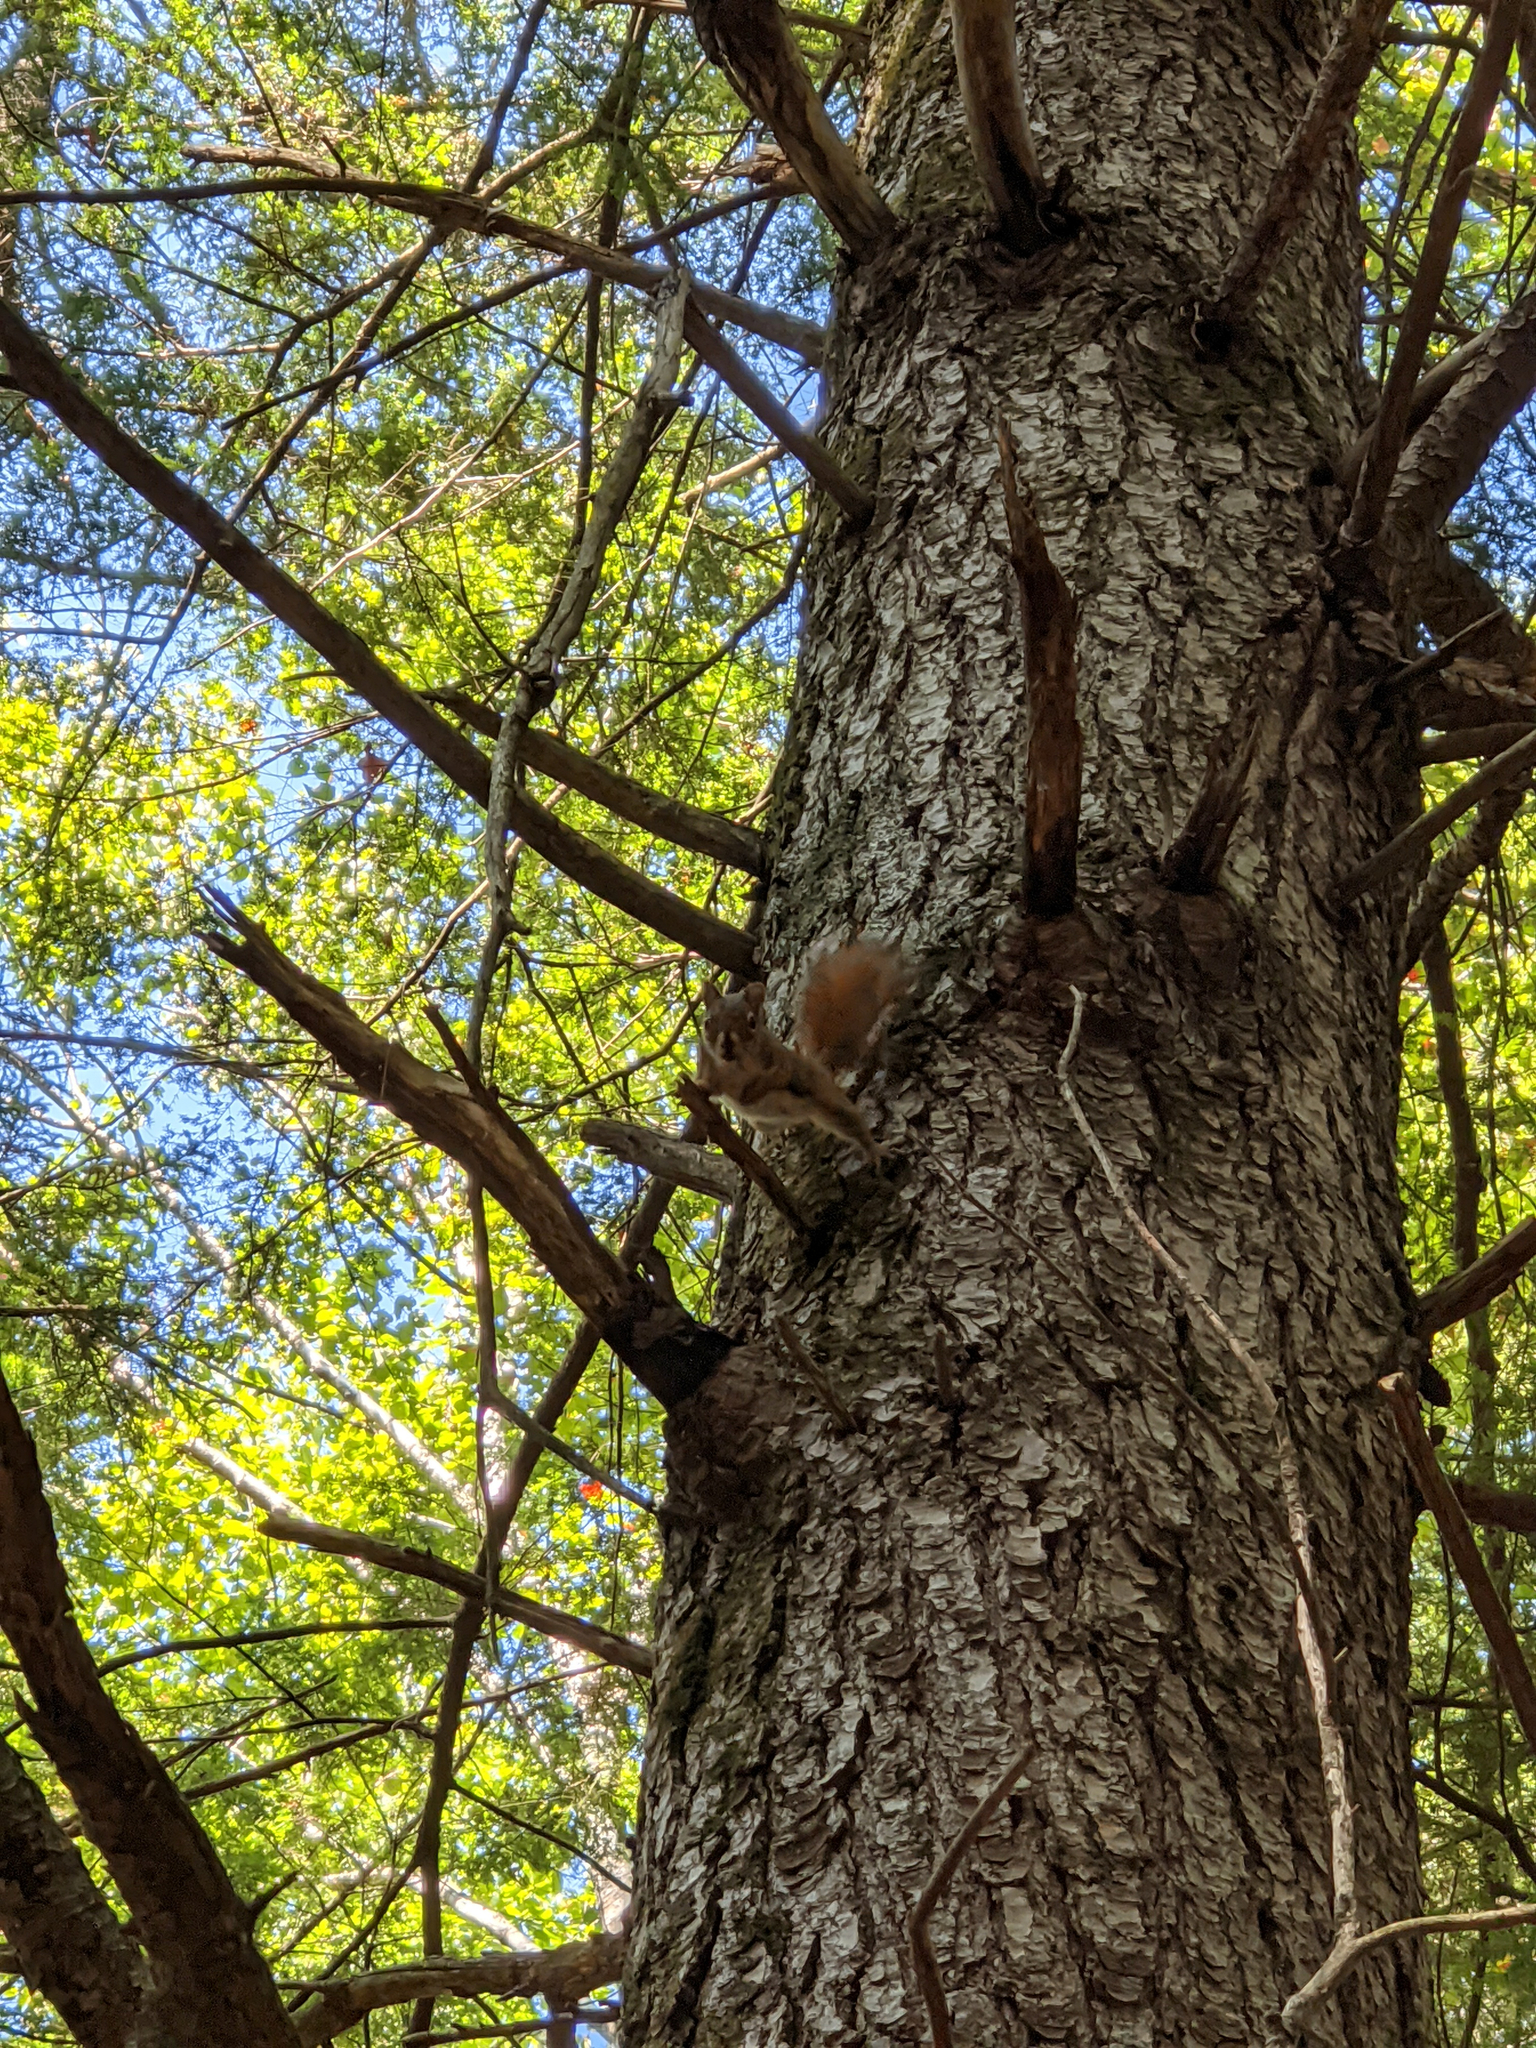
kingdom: Animalia
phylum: Chordata
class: Mammalia
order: Rodentia
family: Sciuridae
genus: Tamiasciurus
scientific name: Tamiasciurus hudsonicus
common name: Red squirrel
